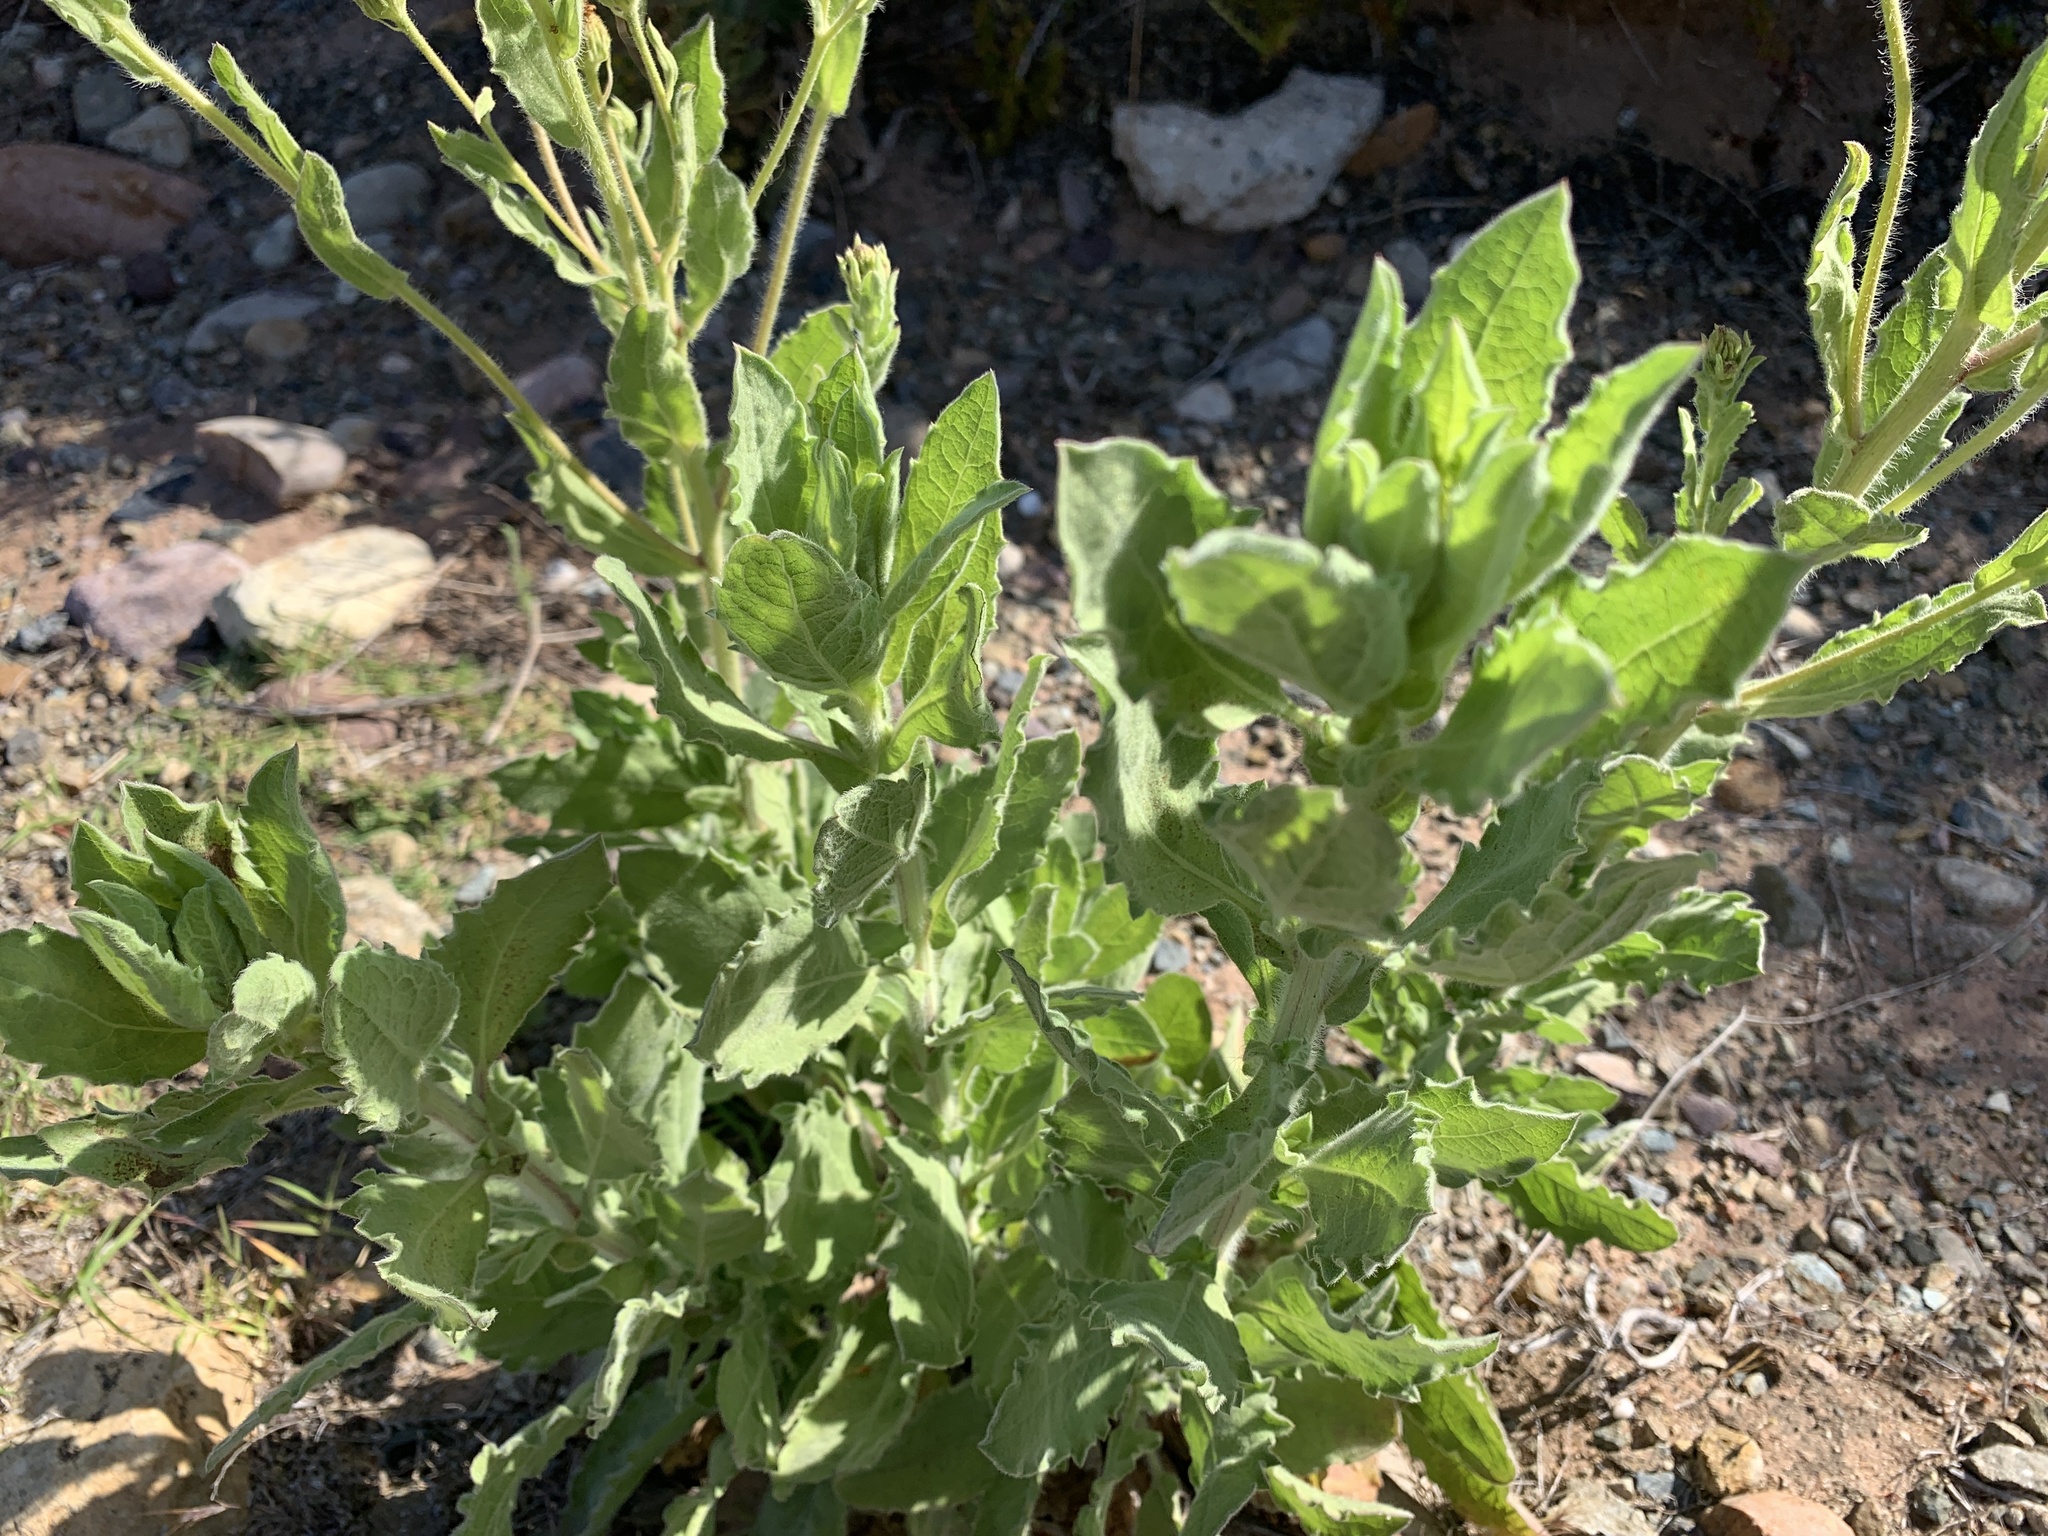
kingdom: Plantae
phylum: Tracheophyta
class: Magnoliopsida
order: Asterales
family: Asteraceae
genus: Heterotheca
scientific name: Heterotheca grandiflora
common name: Telegraphweed
